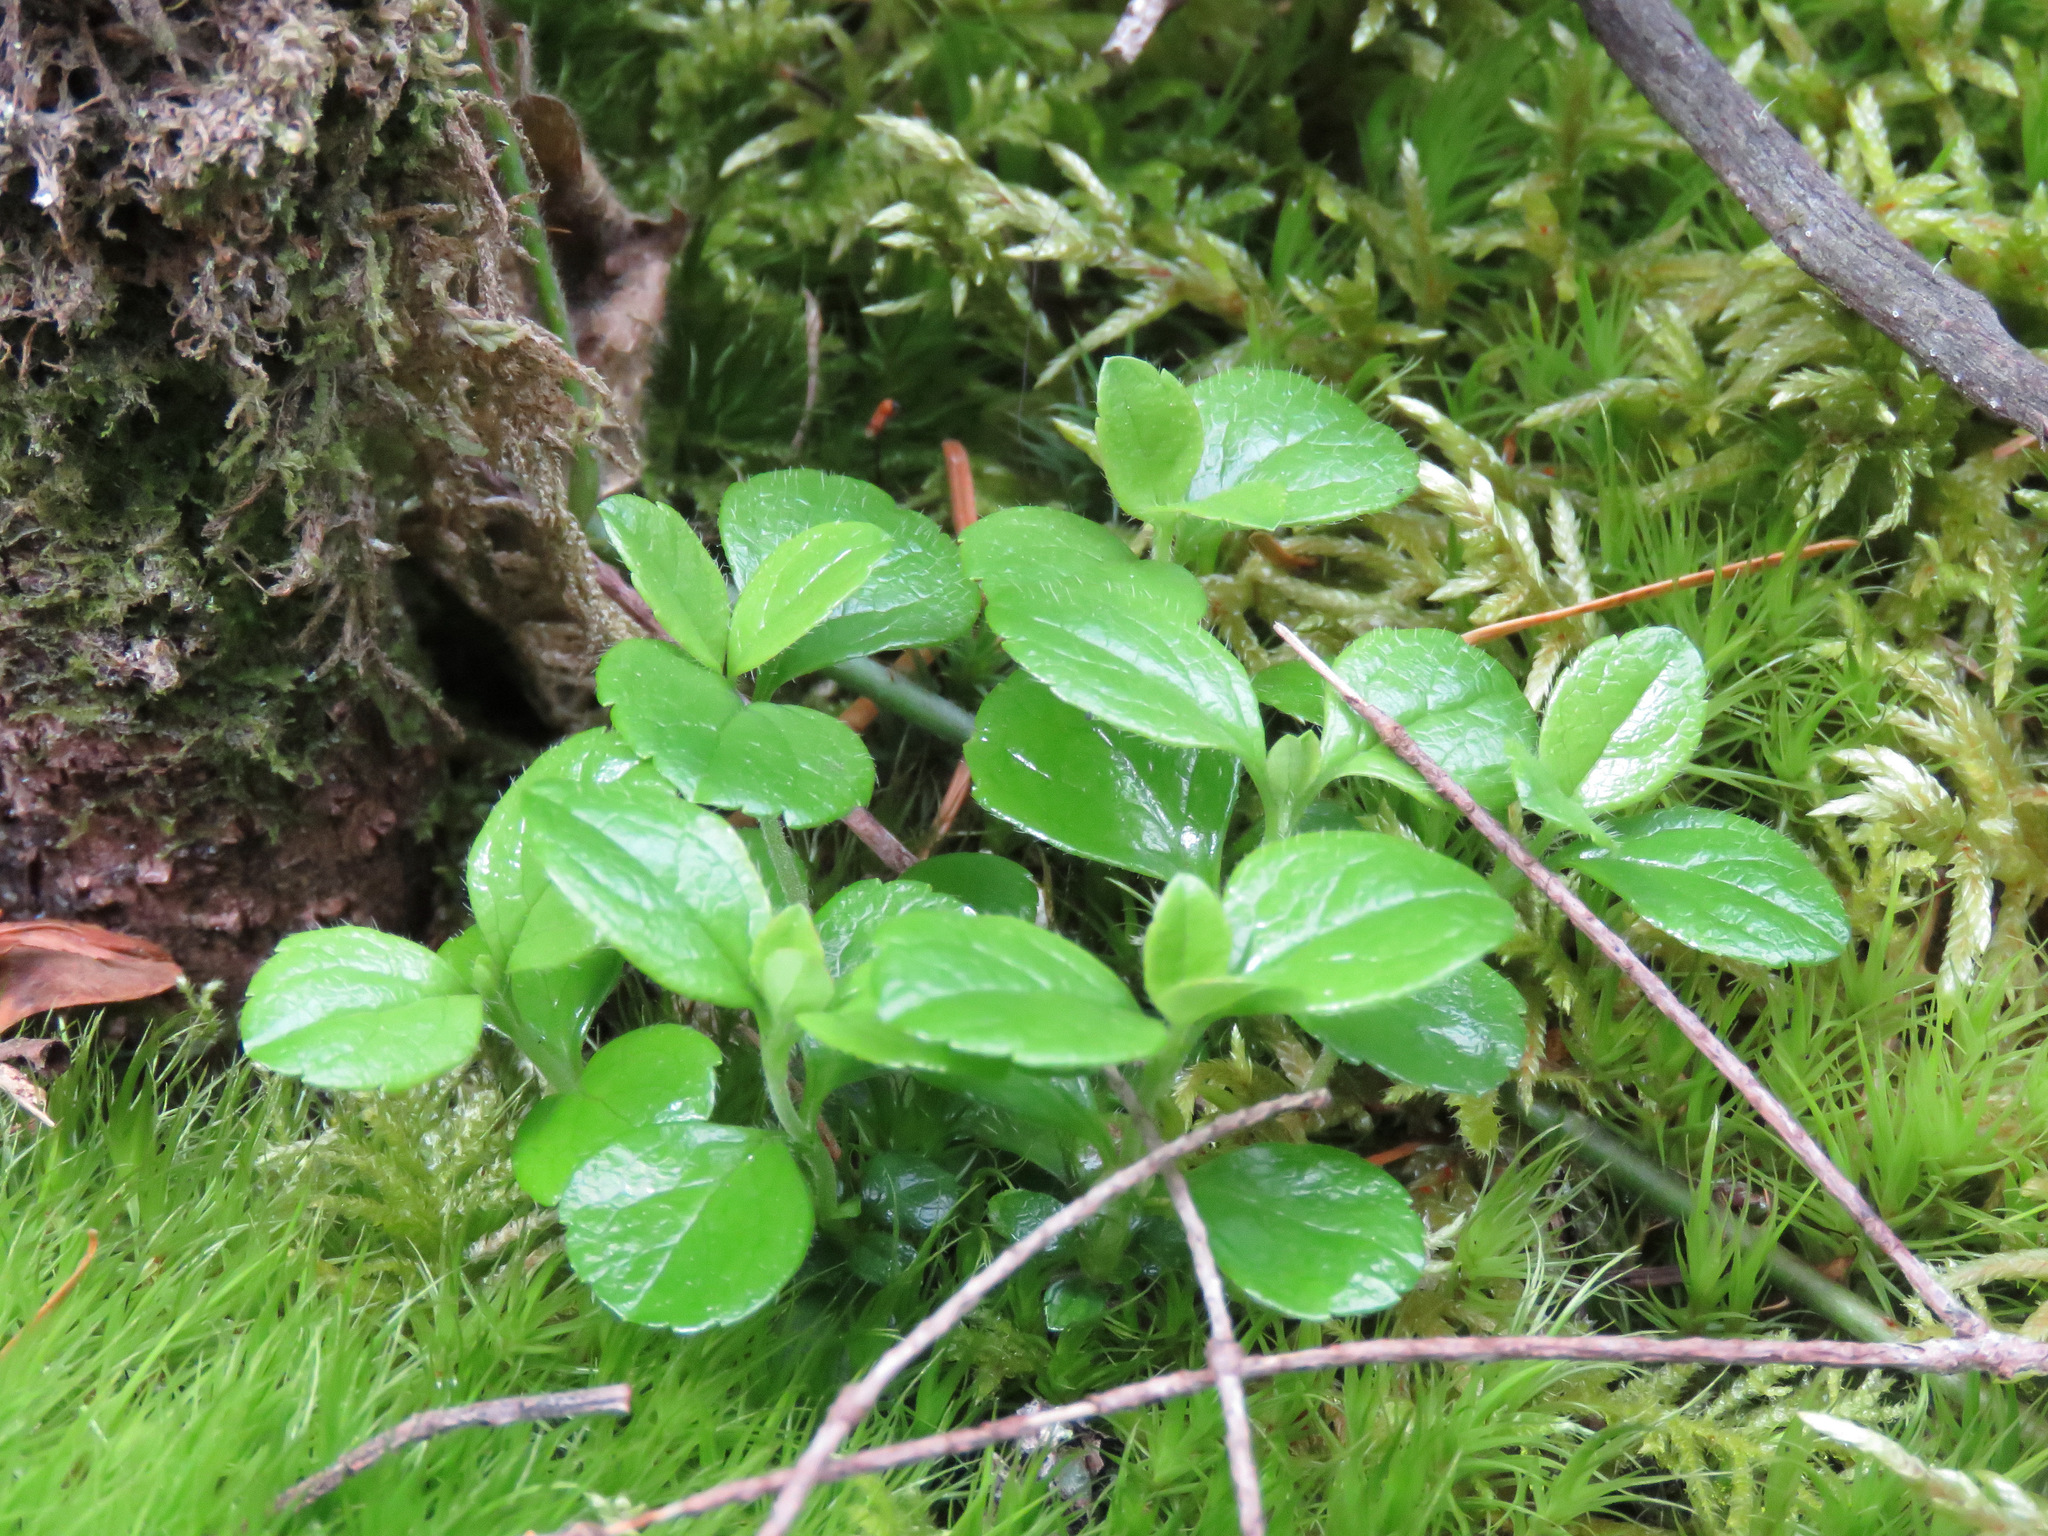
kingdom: Plantae
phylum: Tracheophyta
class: Magnoliopsida
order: Dipsacales
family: Caprifoliaceae
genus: Linnaea
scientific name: Linnaea borealis
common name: Twinflower
